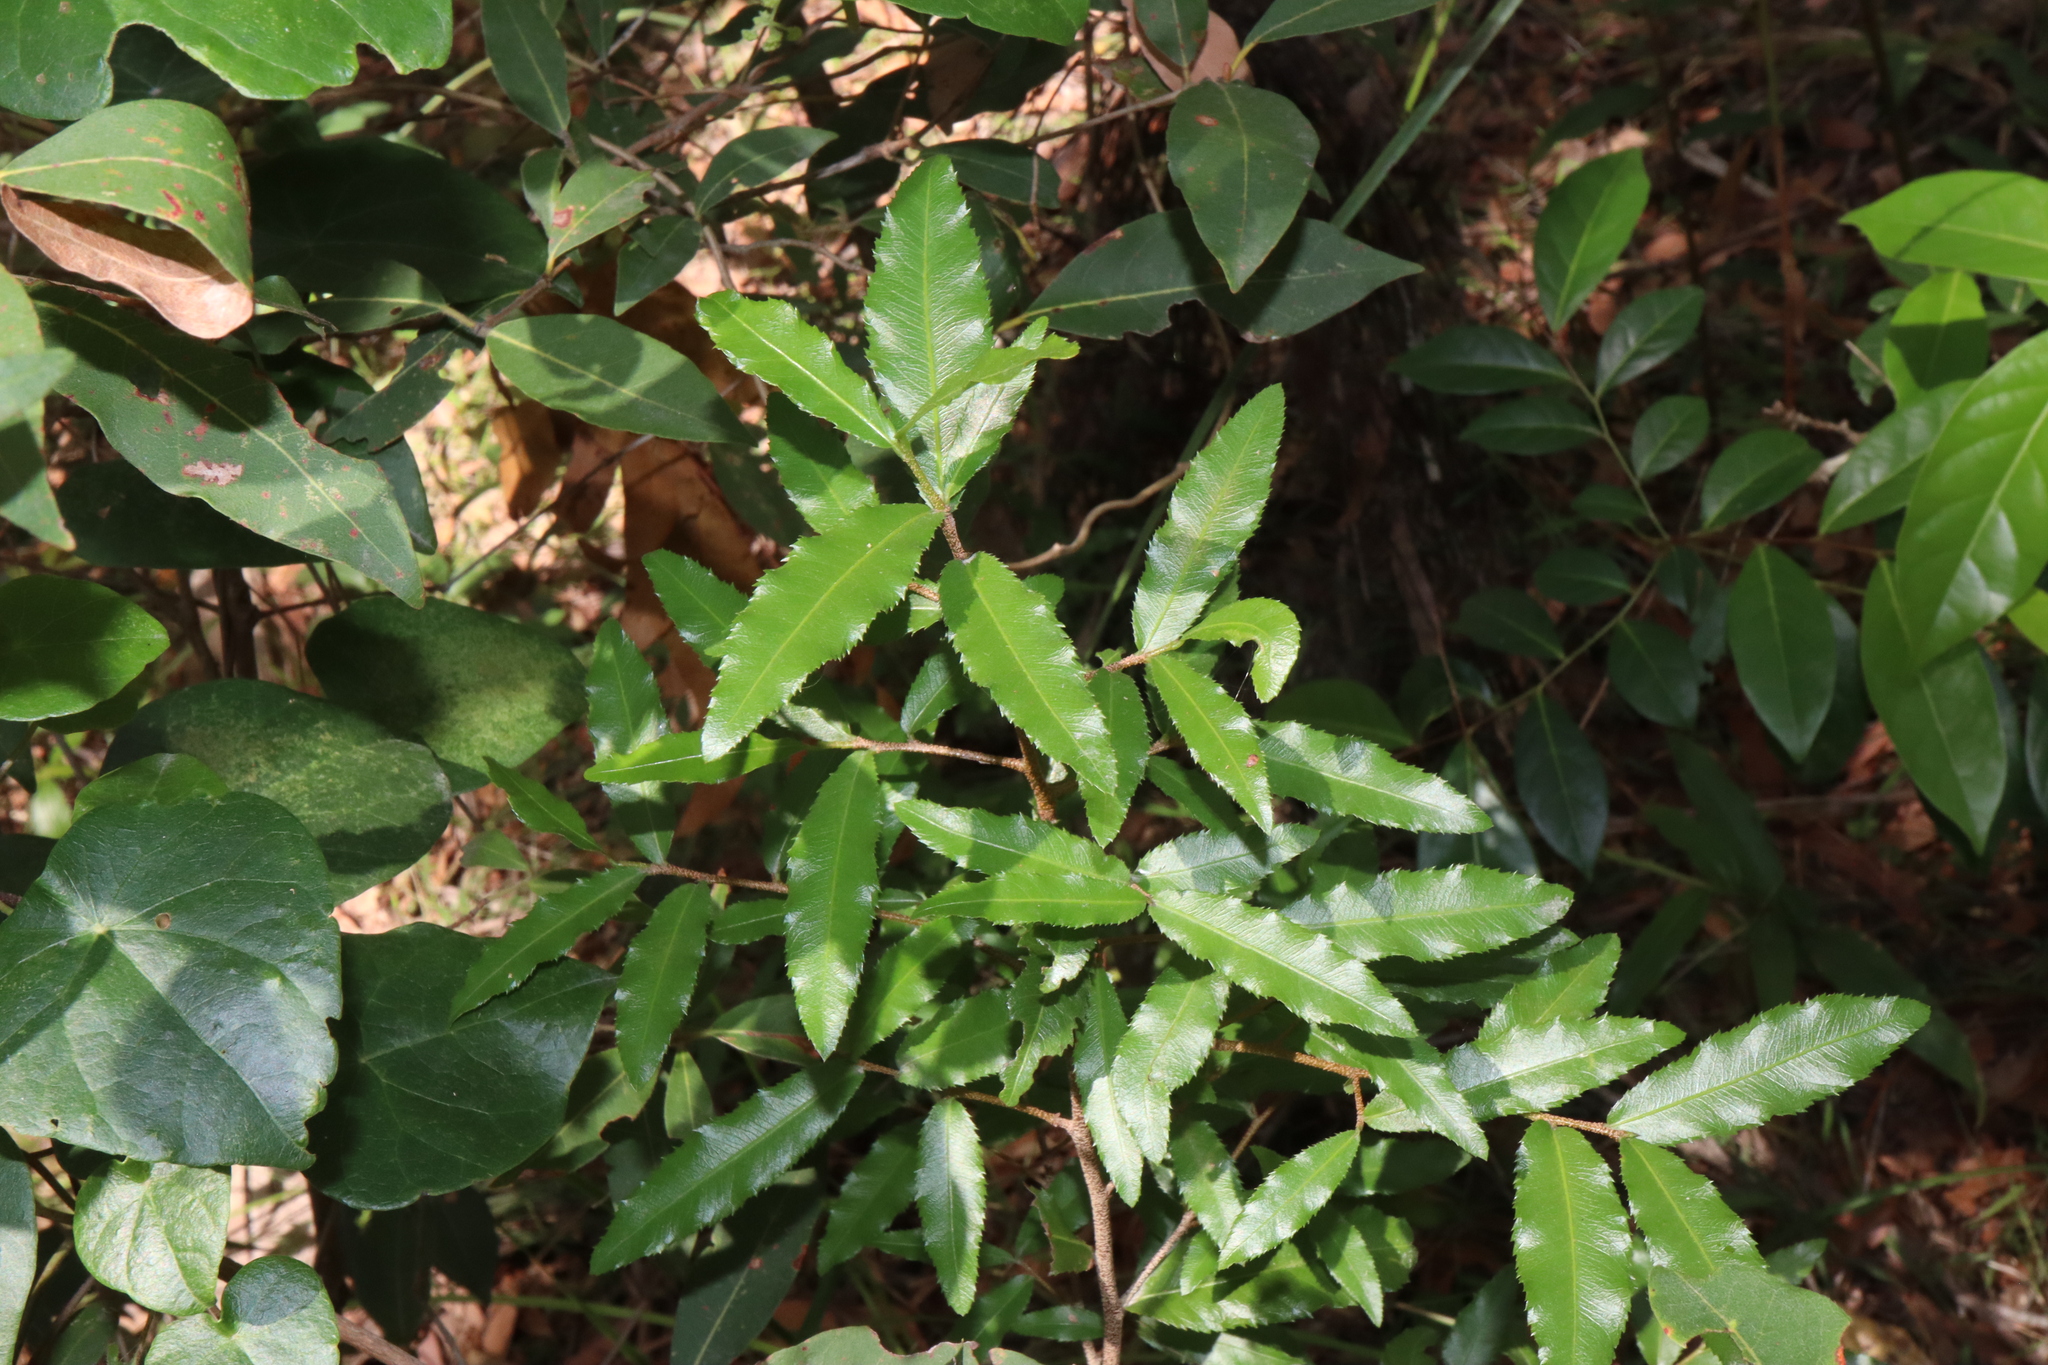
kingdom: Plantae
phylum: Tracheophyta
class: Magnoliopsida
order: Malpighiales
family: Ochnaceae
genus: Ochna
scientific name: Ochna serrulata
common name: Mickey mouse plant
